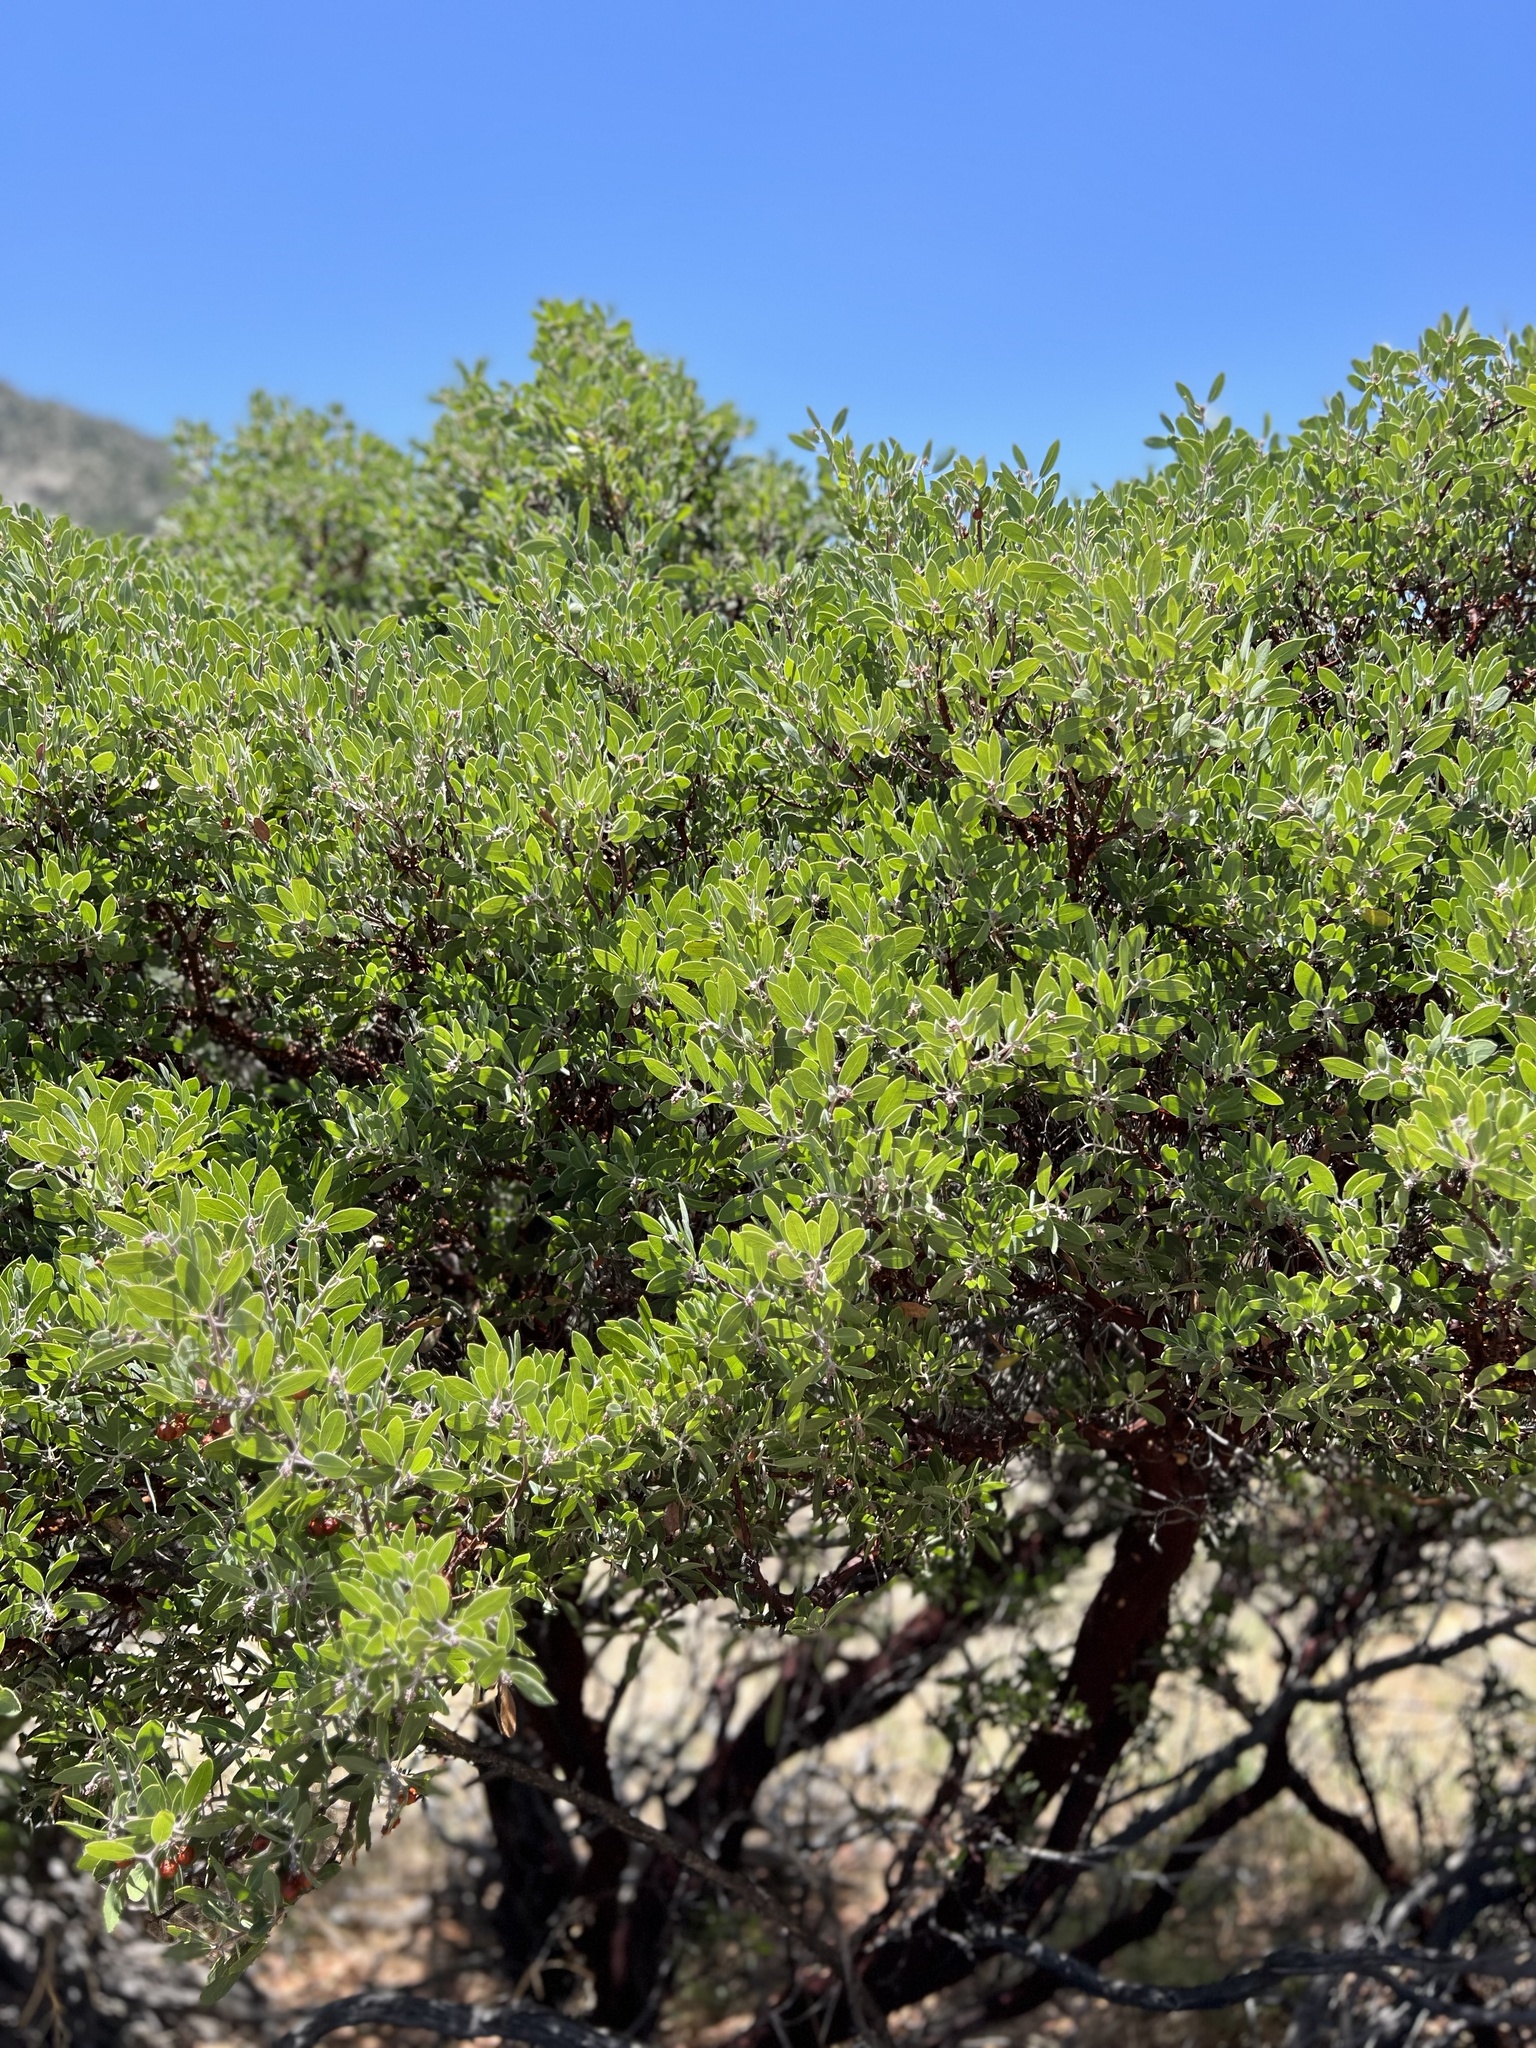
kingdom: Plantae
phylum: Tracheophyta
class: Magnoliopsida
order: Ericales
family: Ericaceae
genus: Arctostaphylos
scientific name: Arctostaphylos pungens
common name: Mexican manzanita
